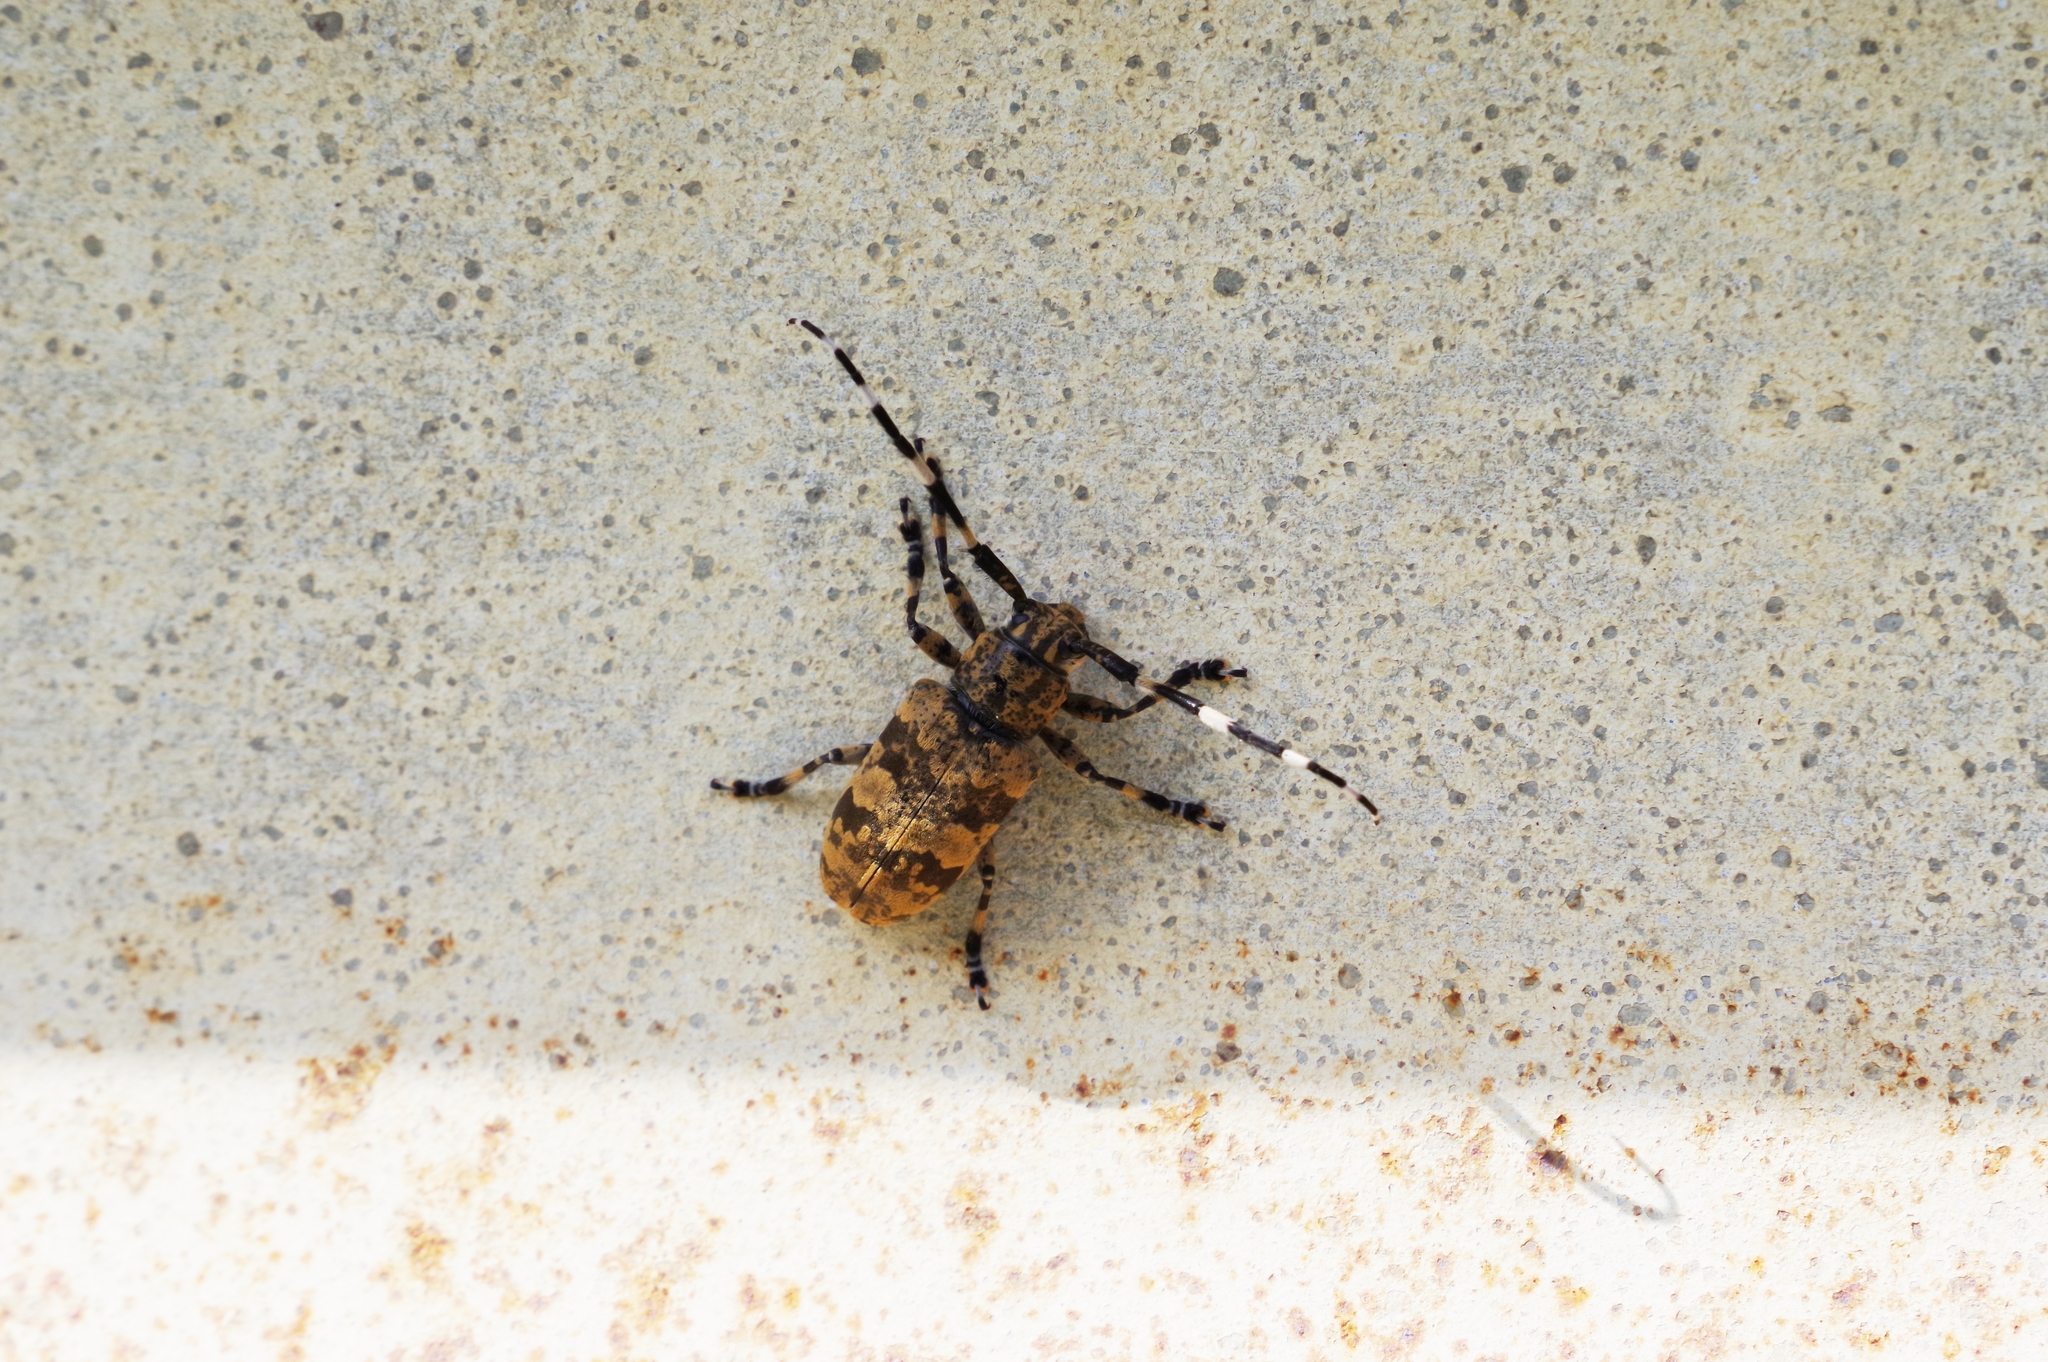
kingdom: Animalia
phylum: Arthropoda
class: Insecta
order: Coleoptera
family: Cerambycidae
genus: Agelasta
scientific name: Agelasta yonaguni
